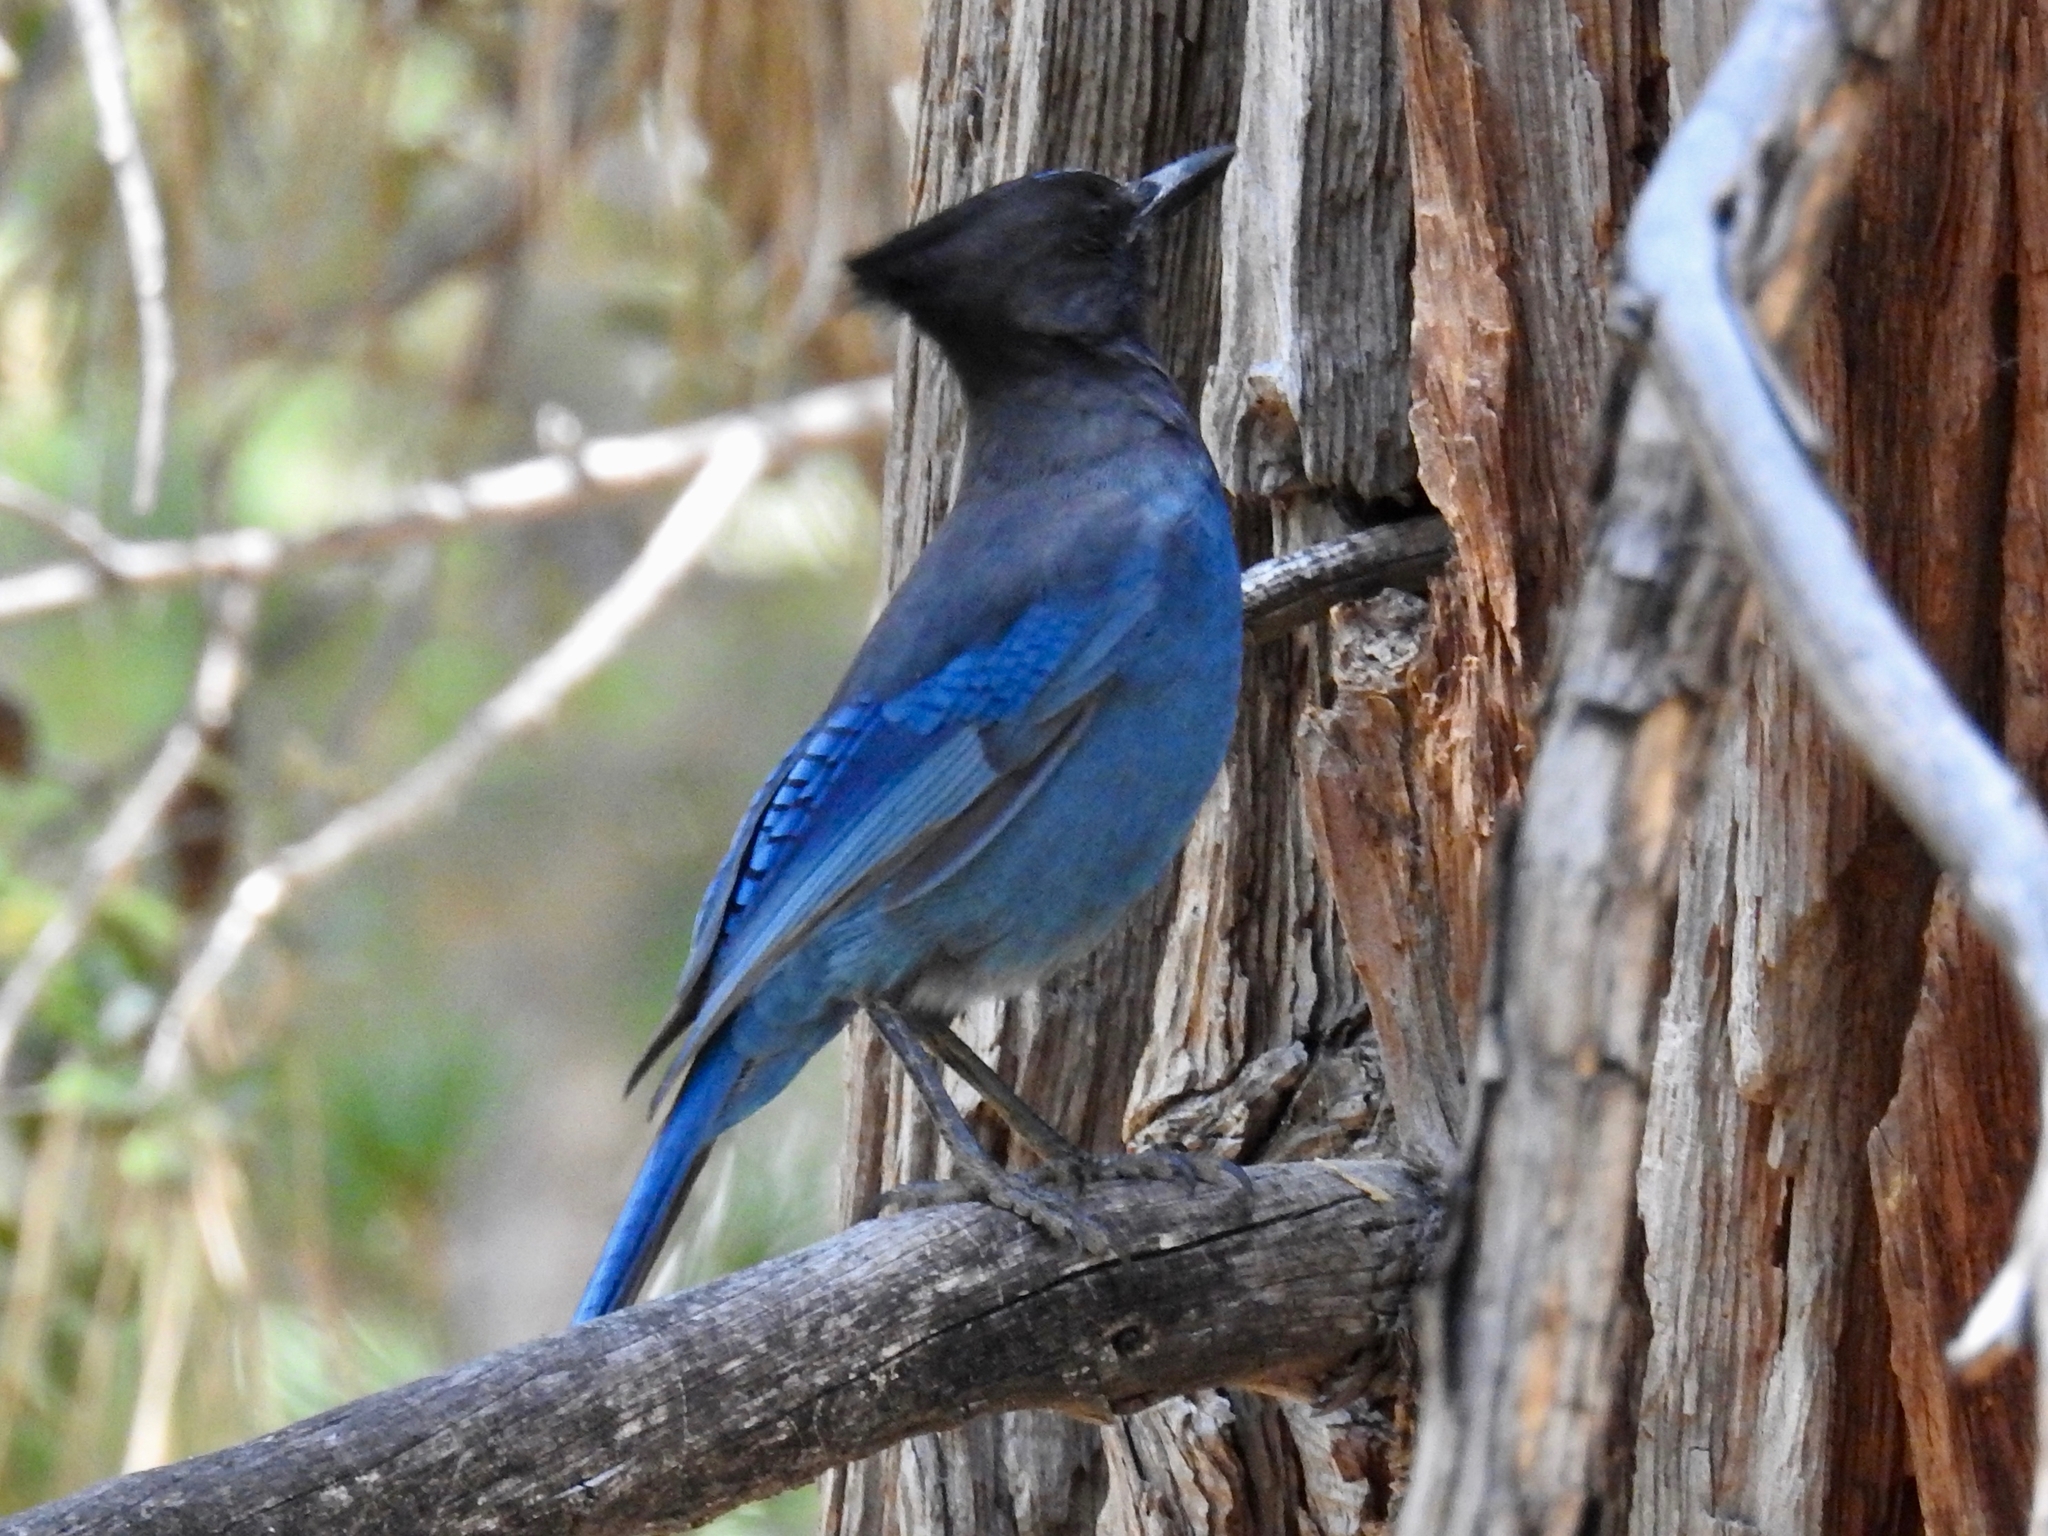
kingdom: Animalia
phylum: Chordata
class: Aves
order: Passeriformes
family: Corvidae
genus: Cyanocitta
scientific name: Cyanocitta stelleri
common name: Steller's jay
